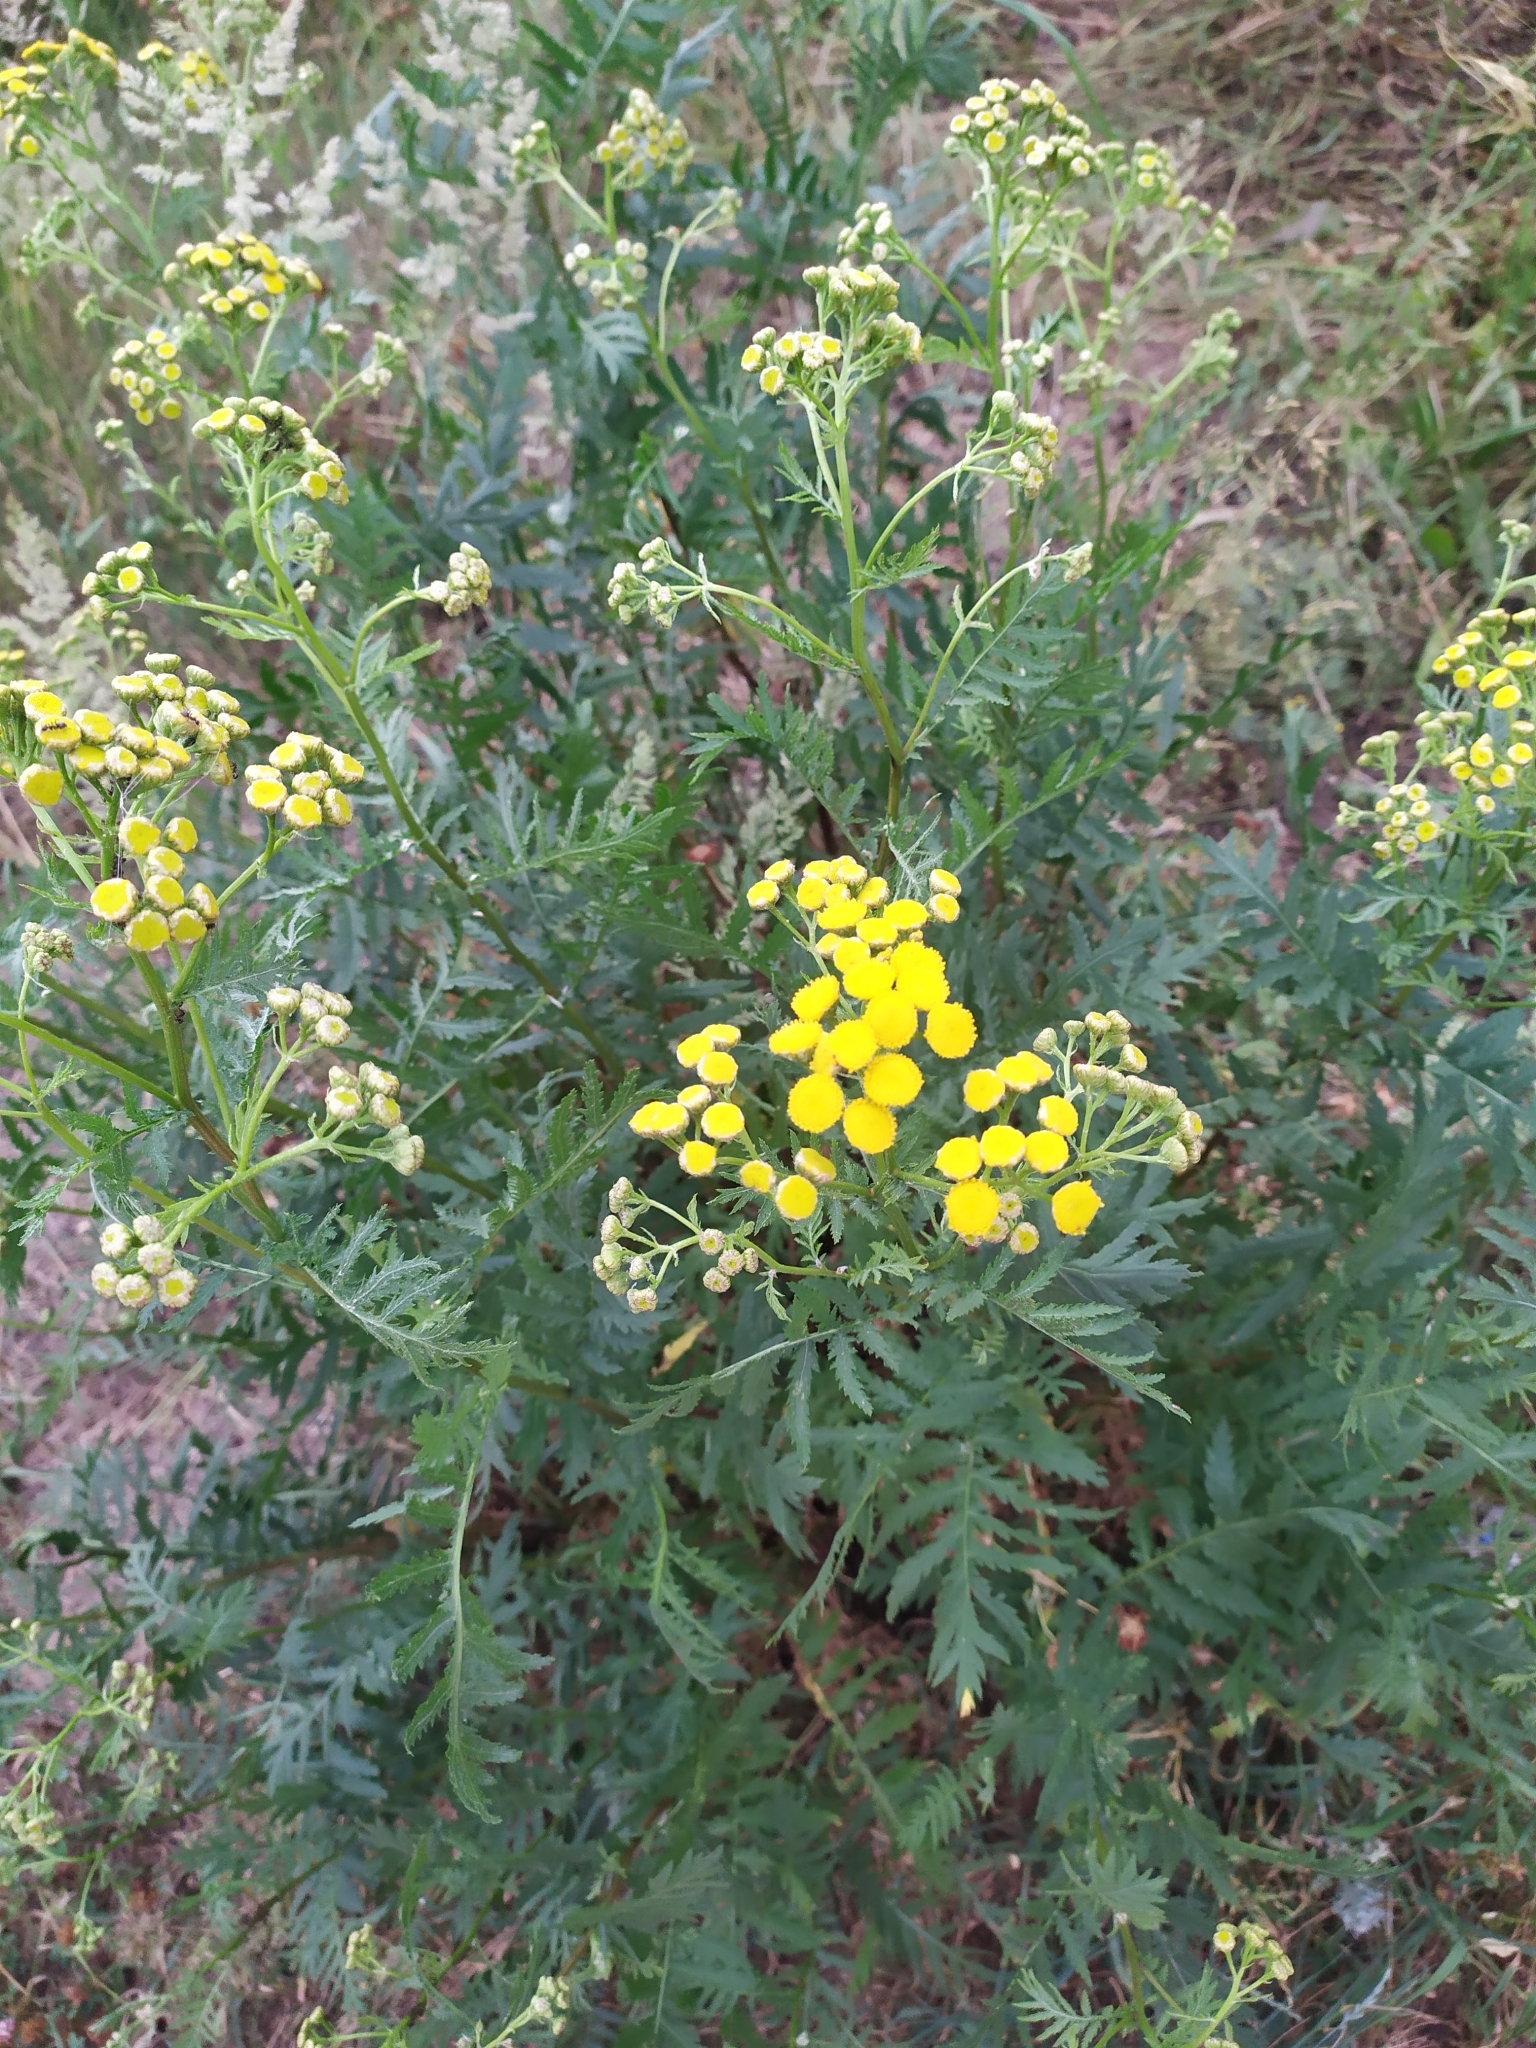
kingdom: Plantae
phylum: Tracheophyta
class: Magnoliopsida
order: Asterales
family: Asteraceae
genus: Tanacetum
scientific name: Tanacetum vulgare
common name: Common tansy
